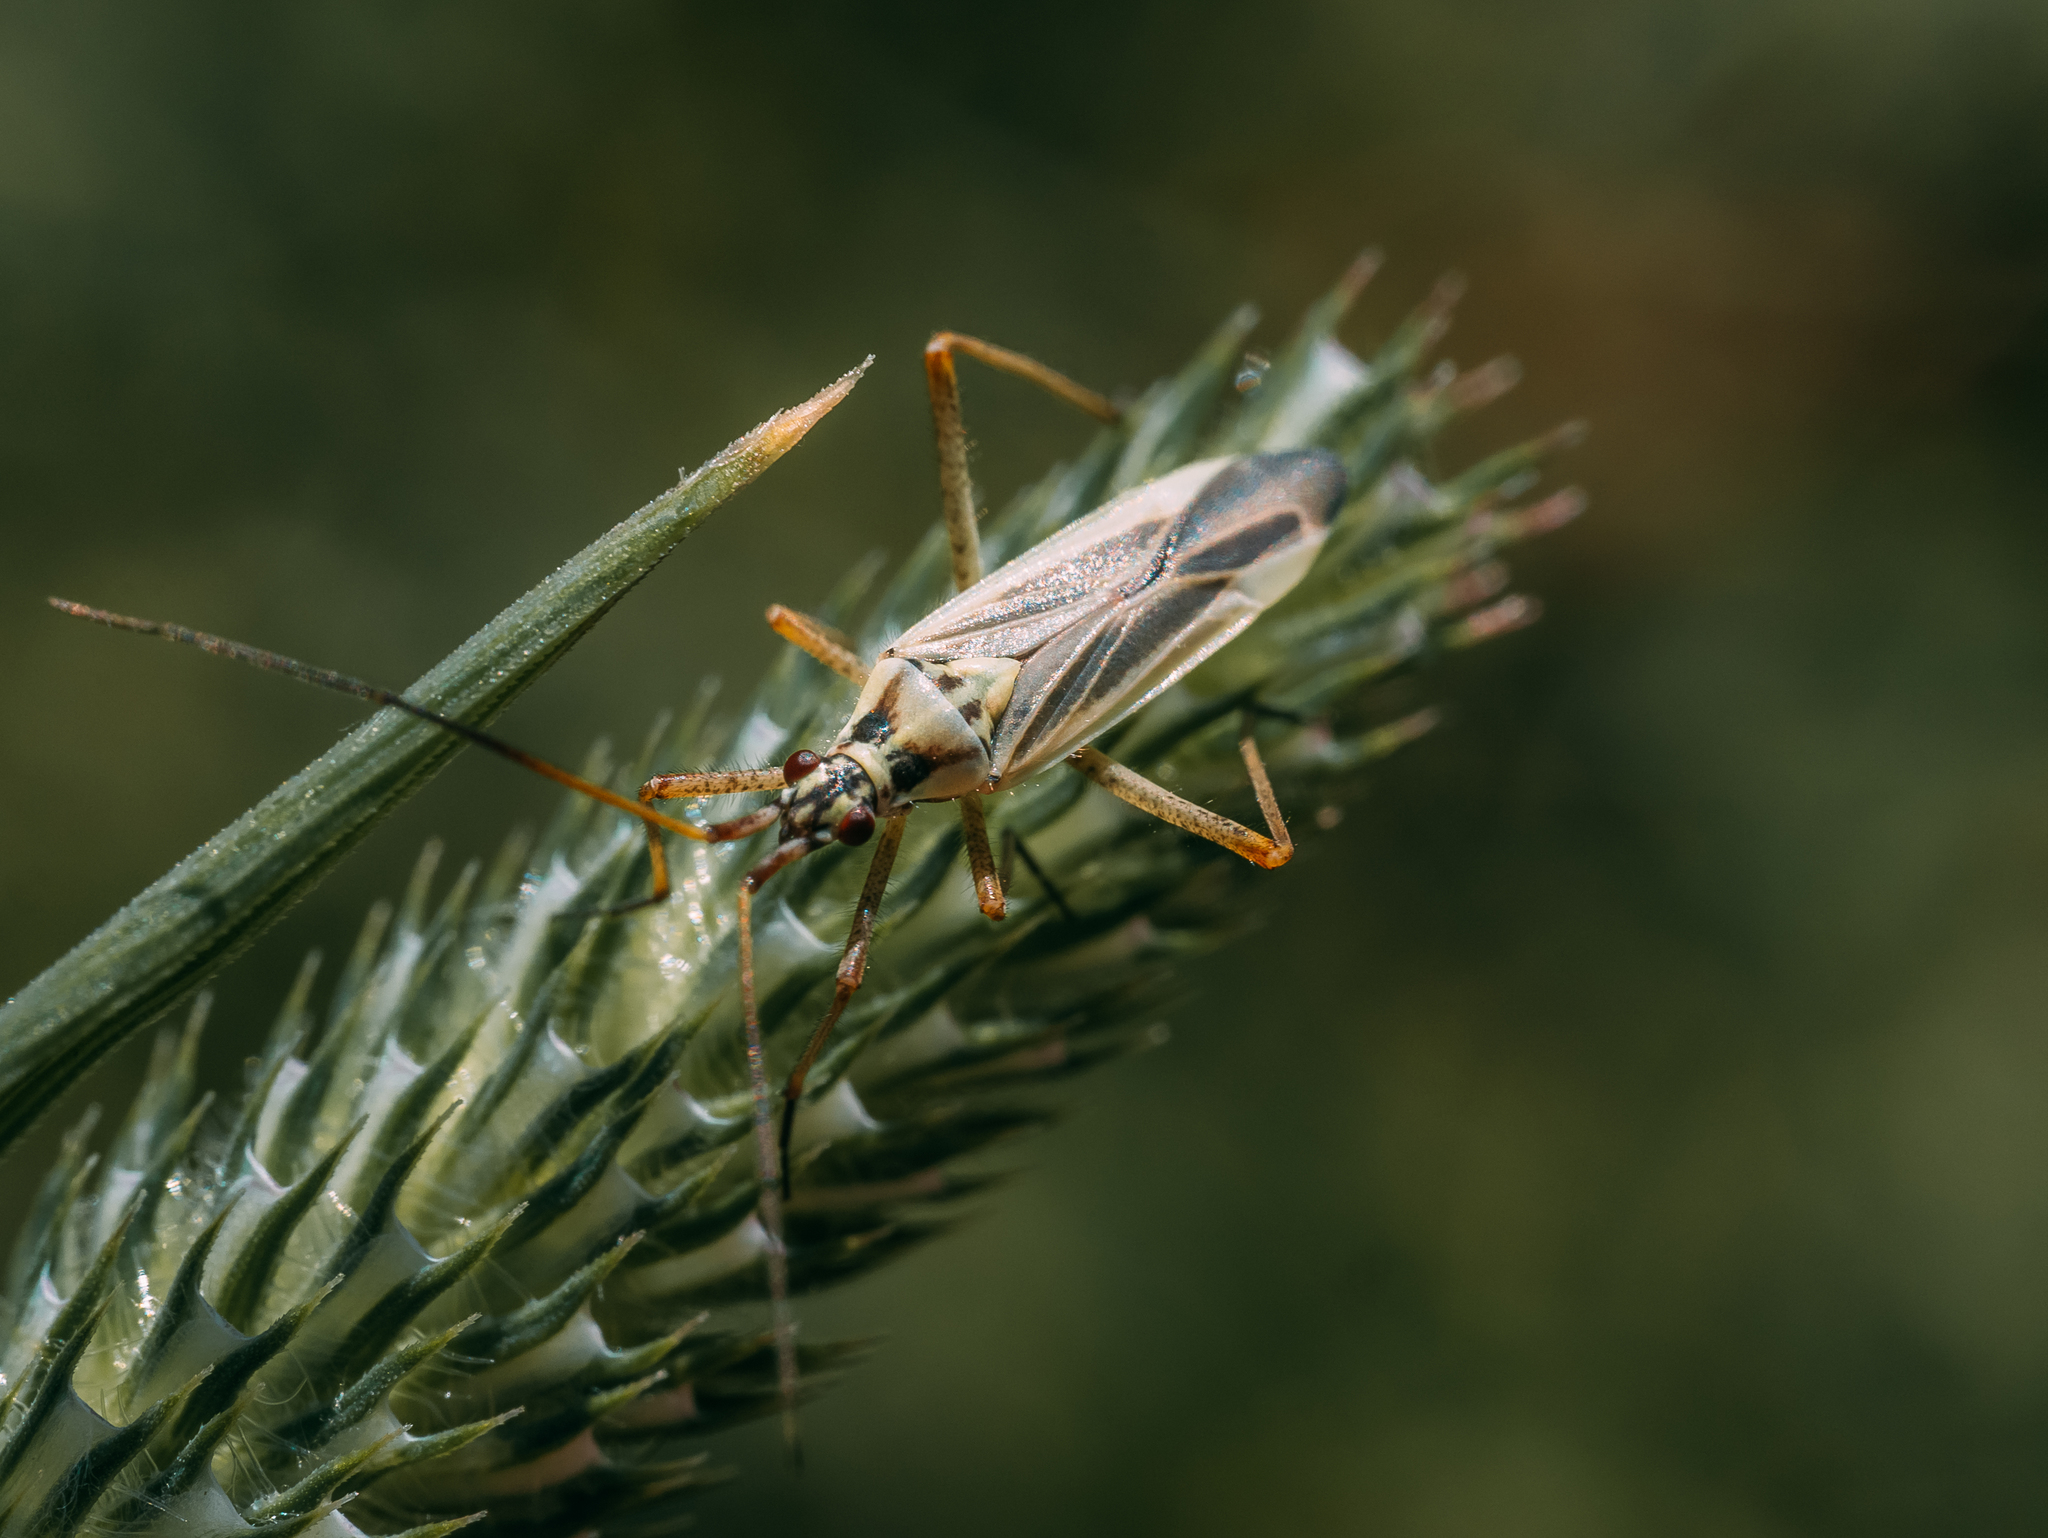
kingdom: Animalia
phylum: Arthropoda
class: Insecta
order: Hemiptera
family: Miridae
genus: Leptopterna
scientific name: Leptopterna dolabrata
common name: Meadow plant bug
